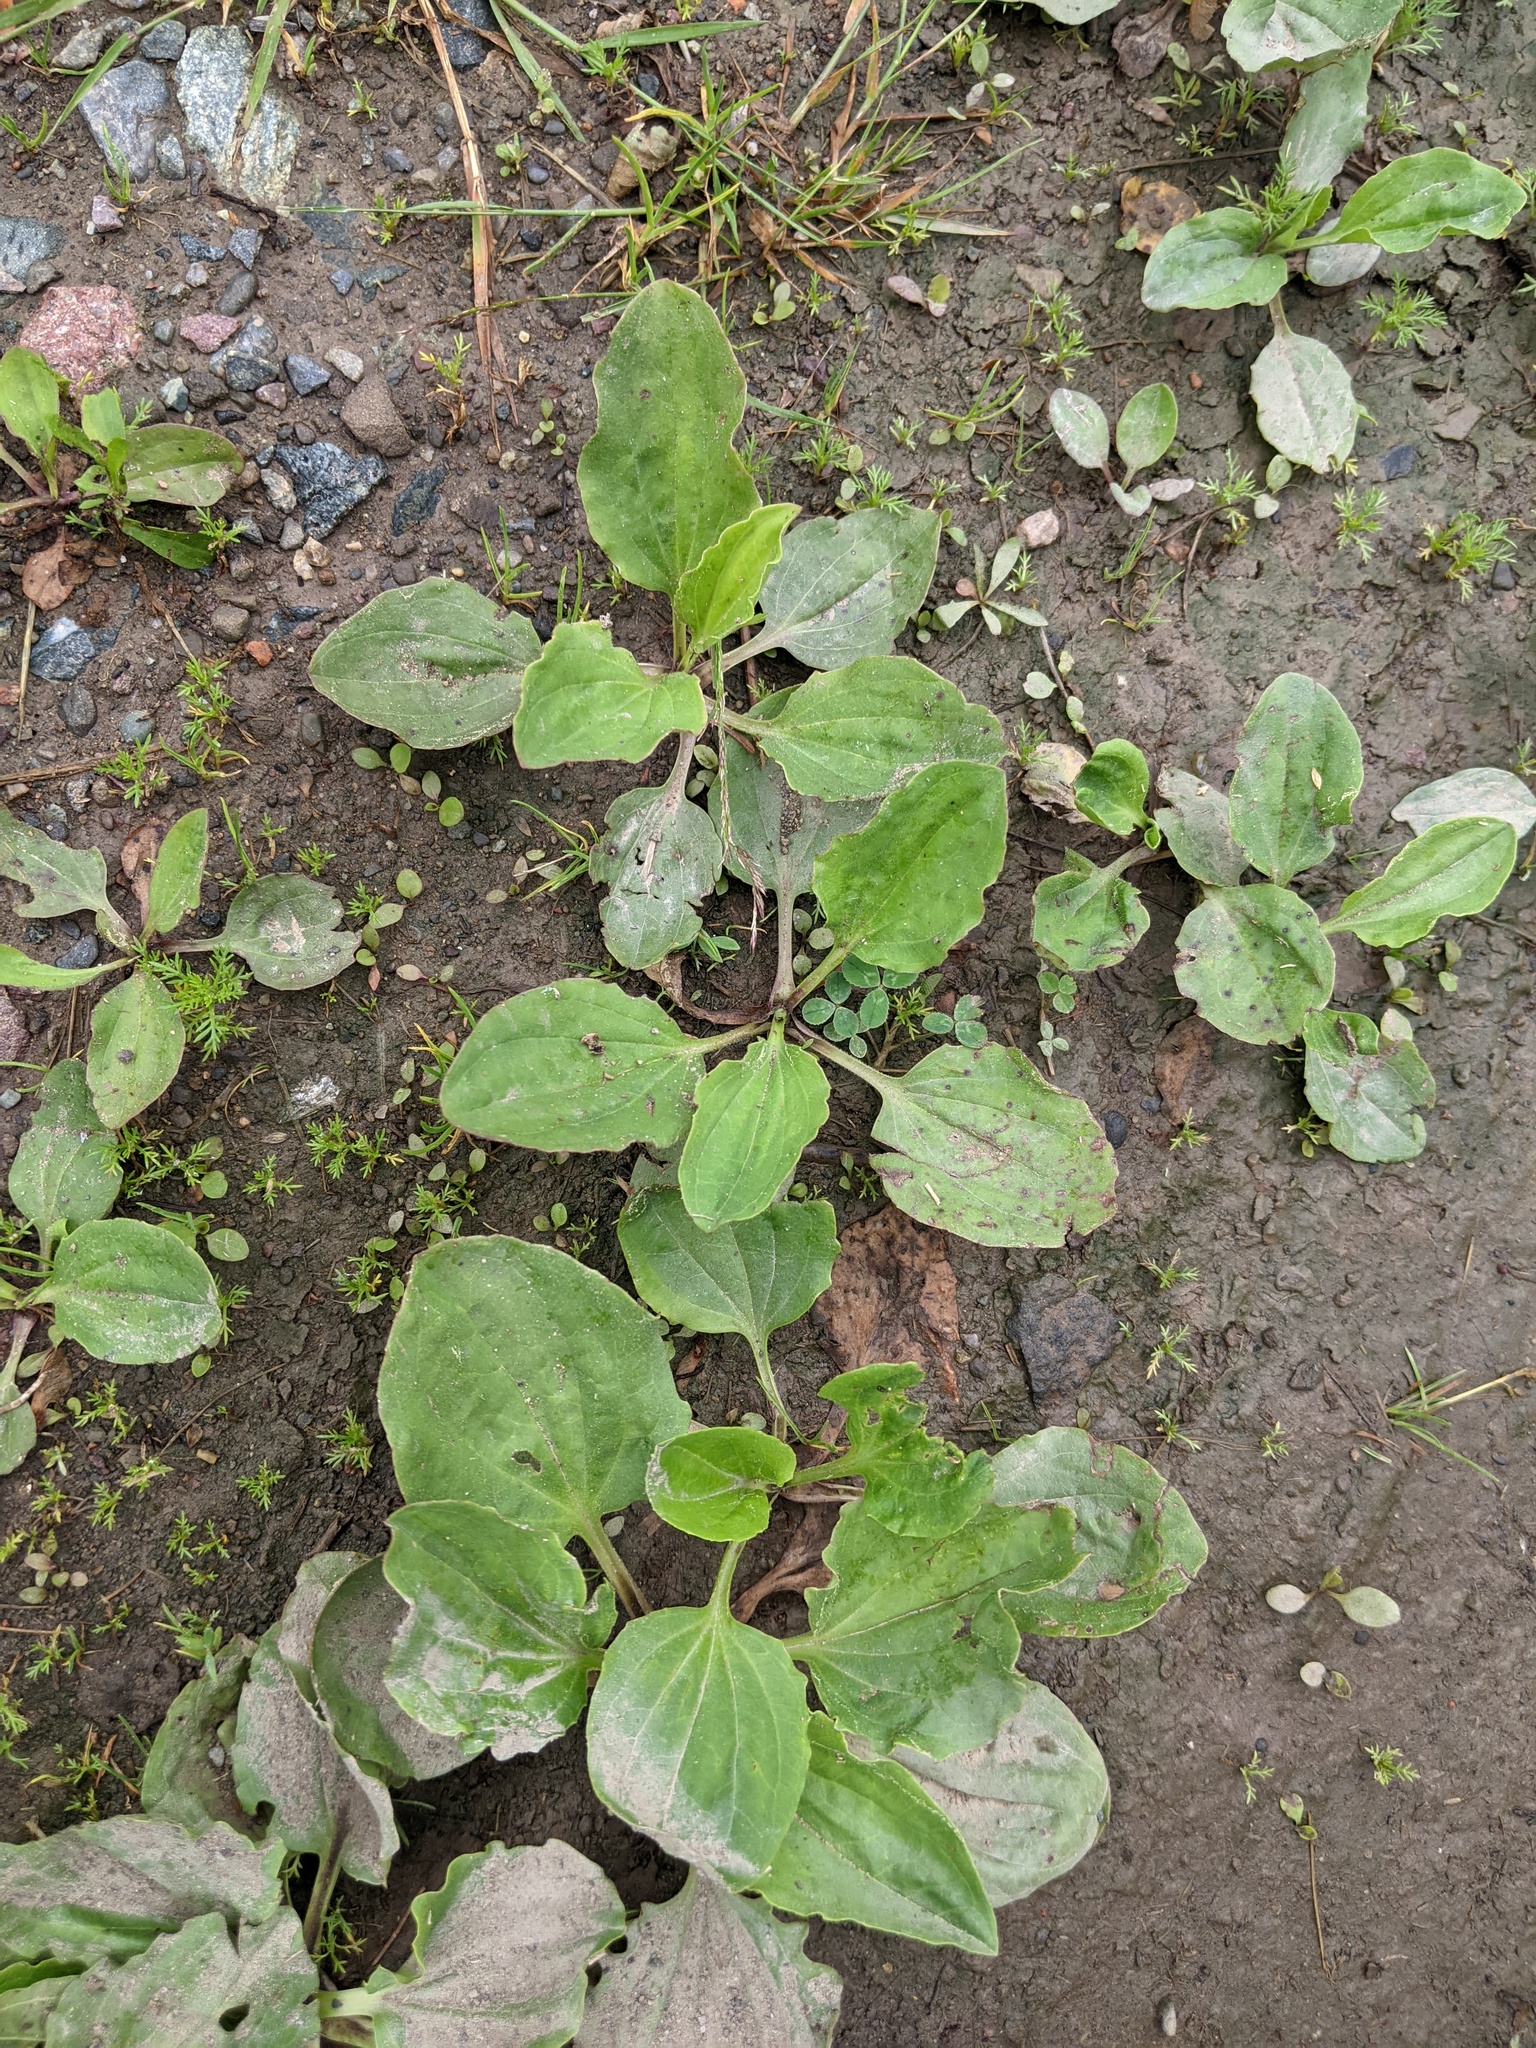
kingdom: Plantae
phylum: Tracheophyta
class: Magnoliopsida
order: Lamiales
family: Plantaginaceae
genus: Plantago
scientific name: Plantago major
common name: Common plantain
